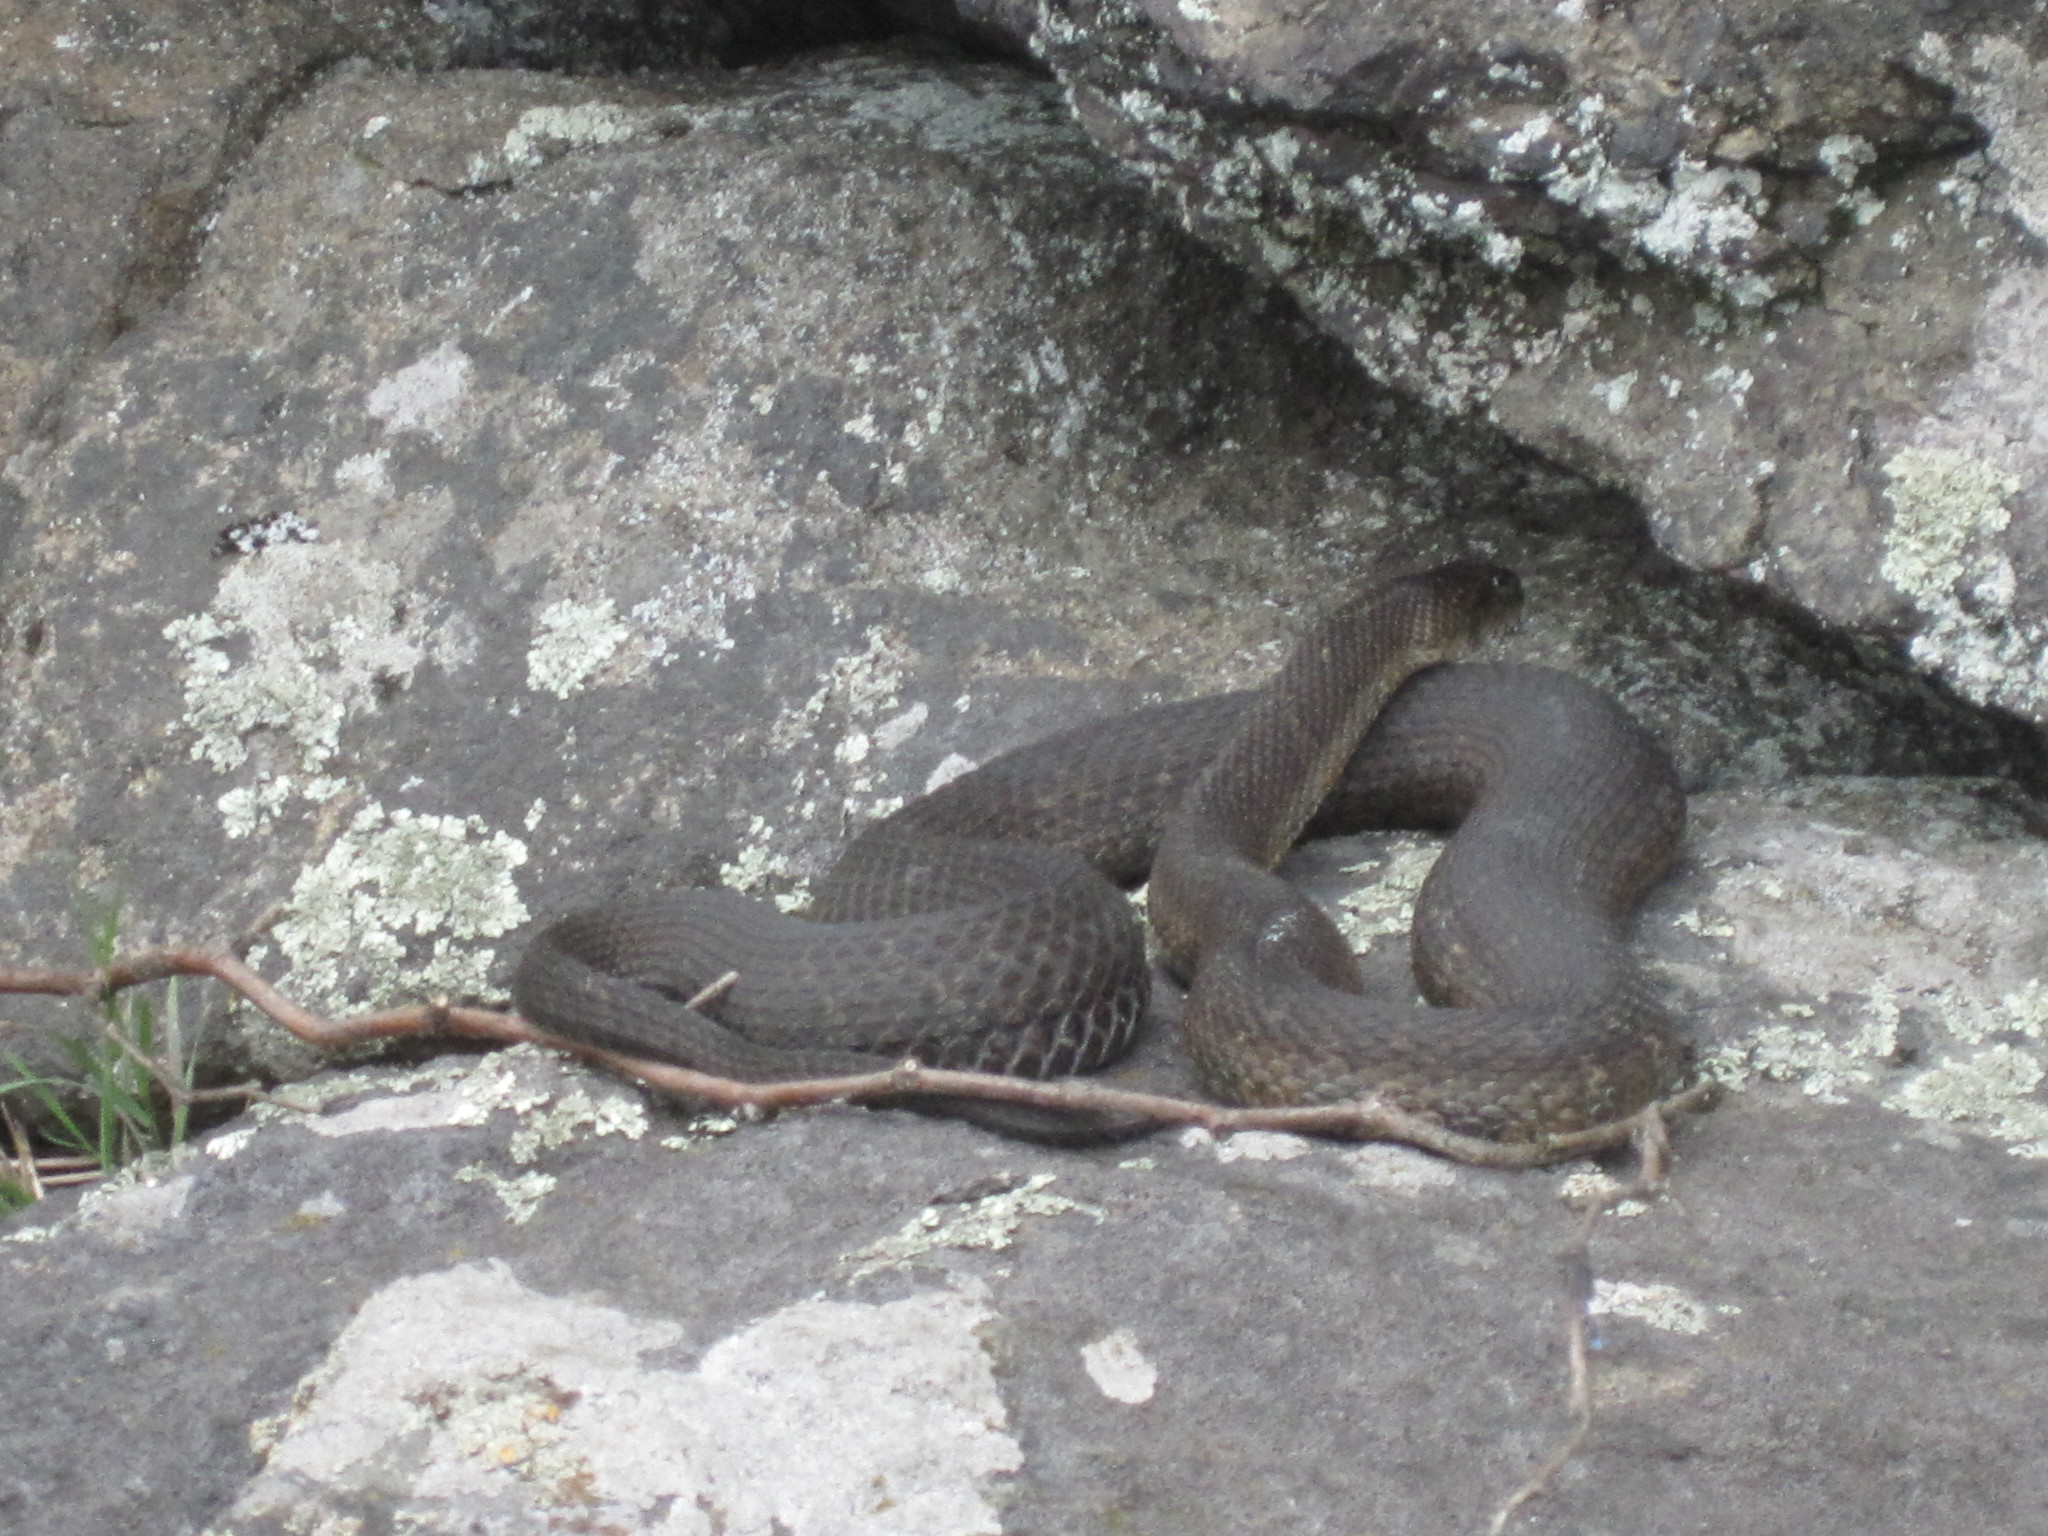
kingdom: Animalia
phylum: Chordata
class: Squamata
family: Colubridae
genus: Nerodia
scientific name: Nerodia sipedon
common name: Northern water snake
